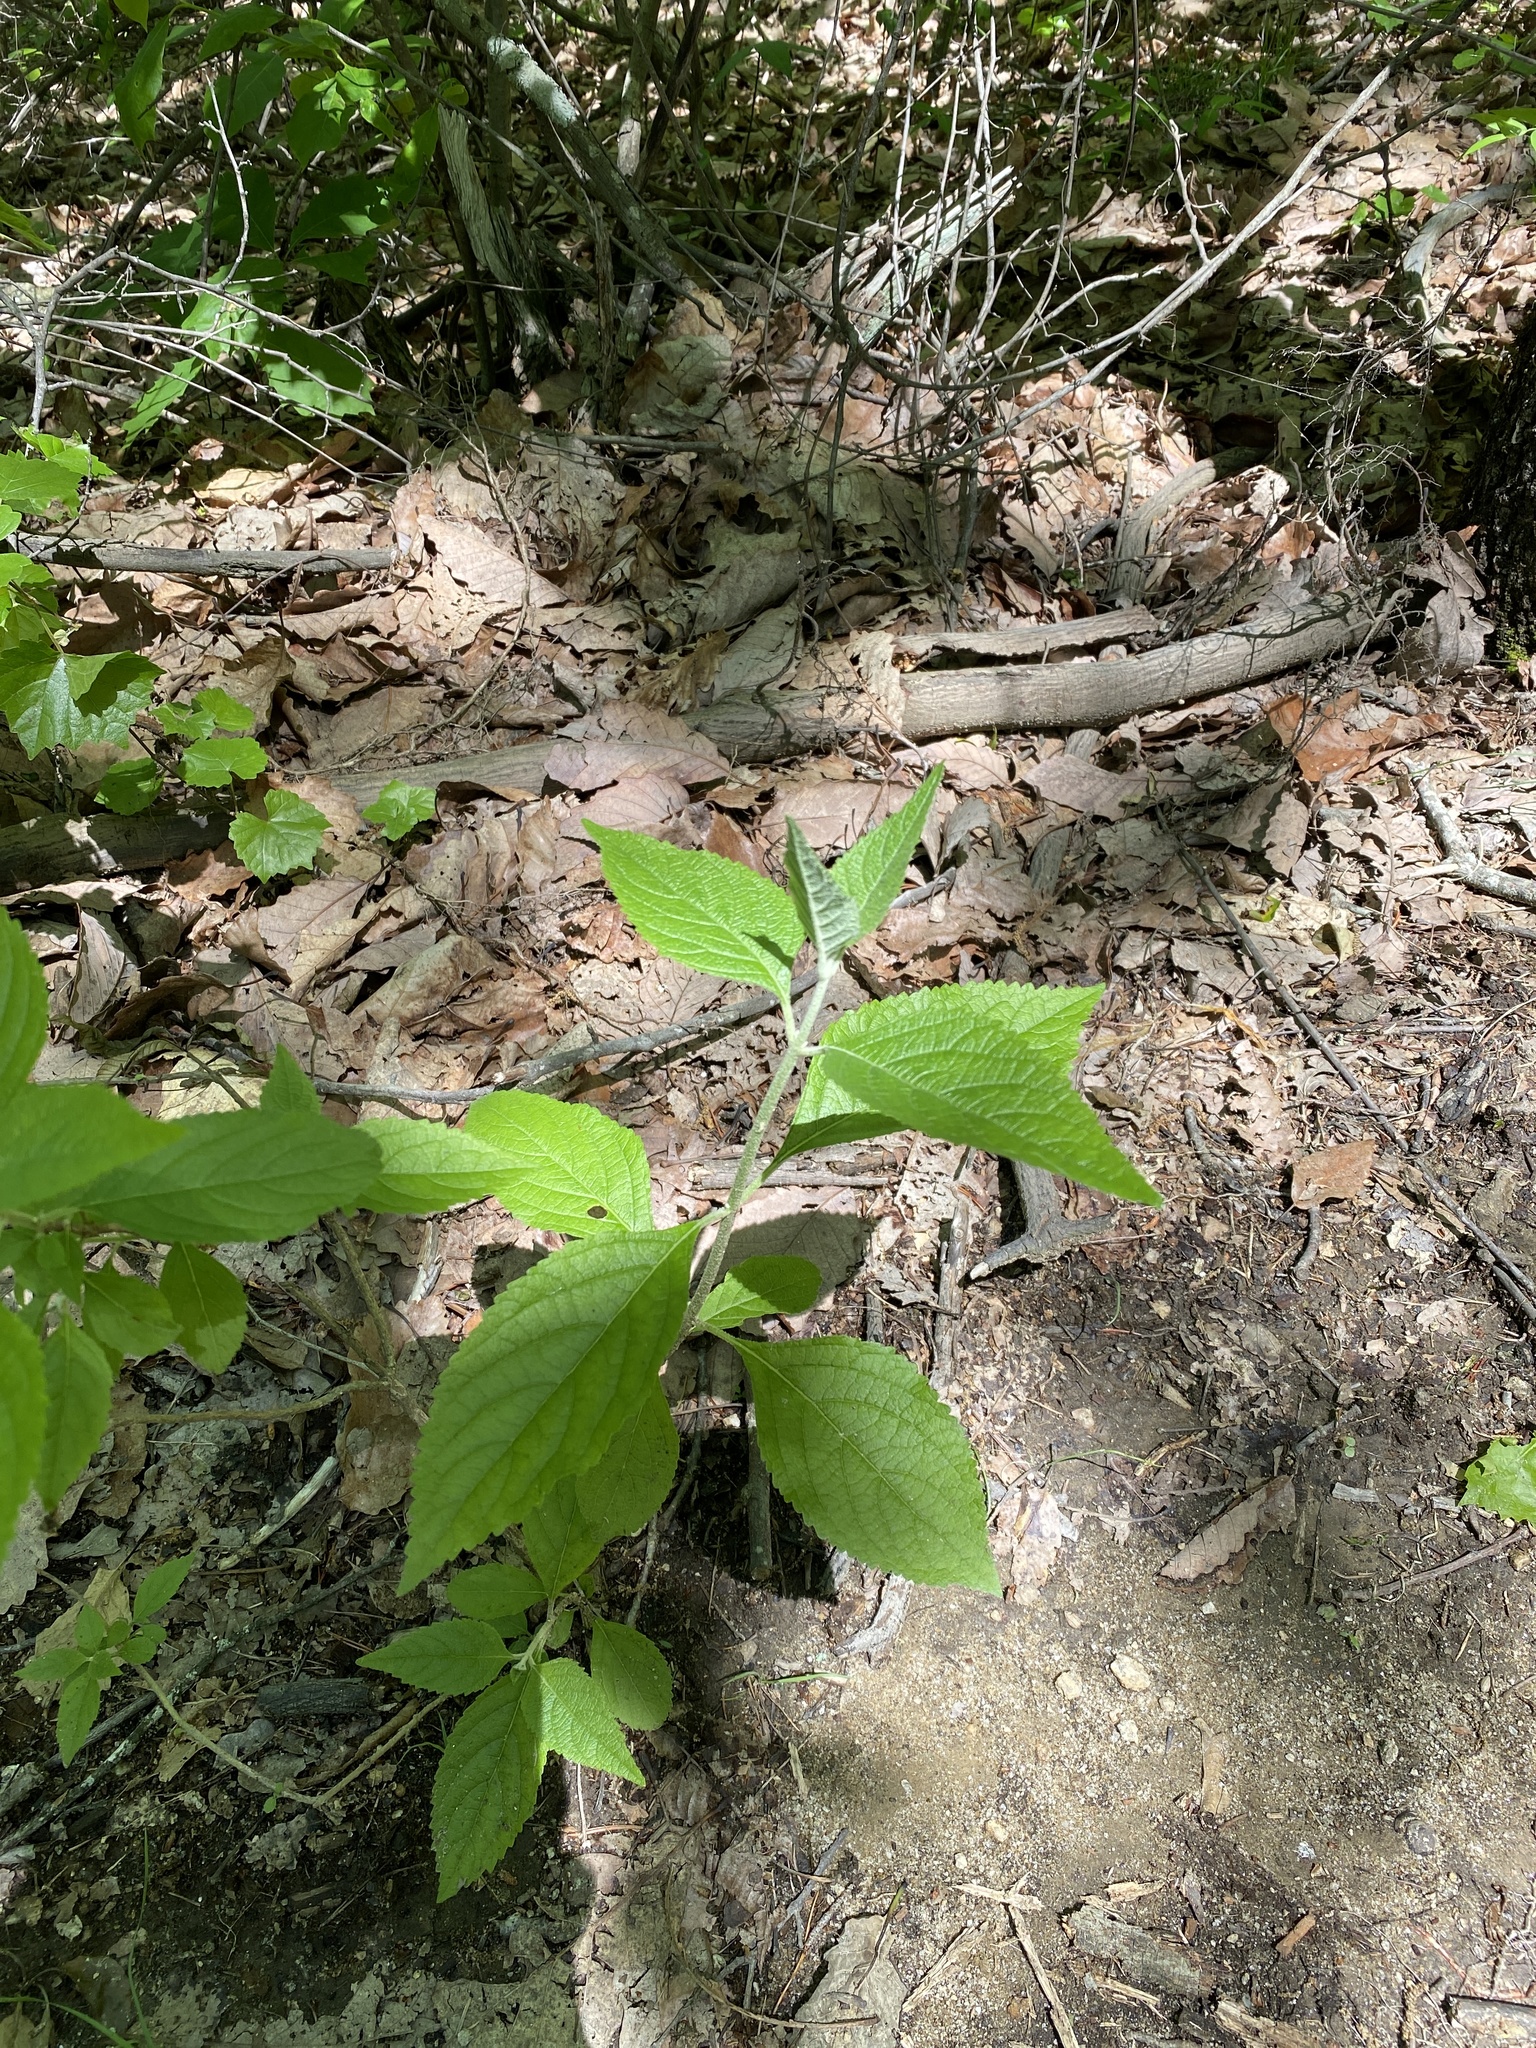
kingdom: Plantae
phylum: Tracheophyta
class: Magnoliopsida
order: Lamiales
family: Lamiaceae
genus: Callicarpa
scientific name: Callicarpa americana
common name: American beautyberry
